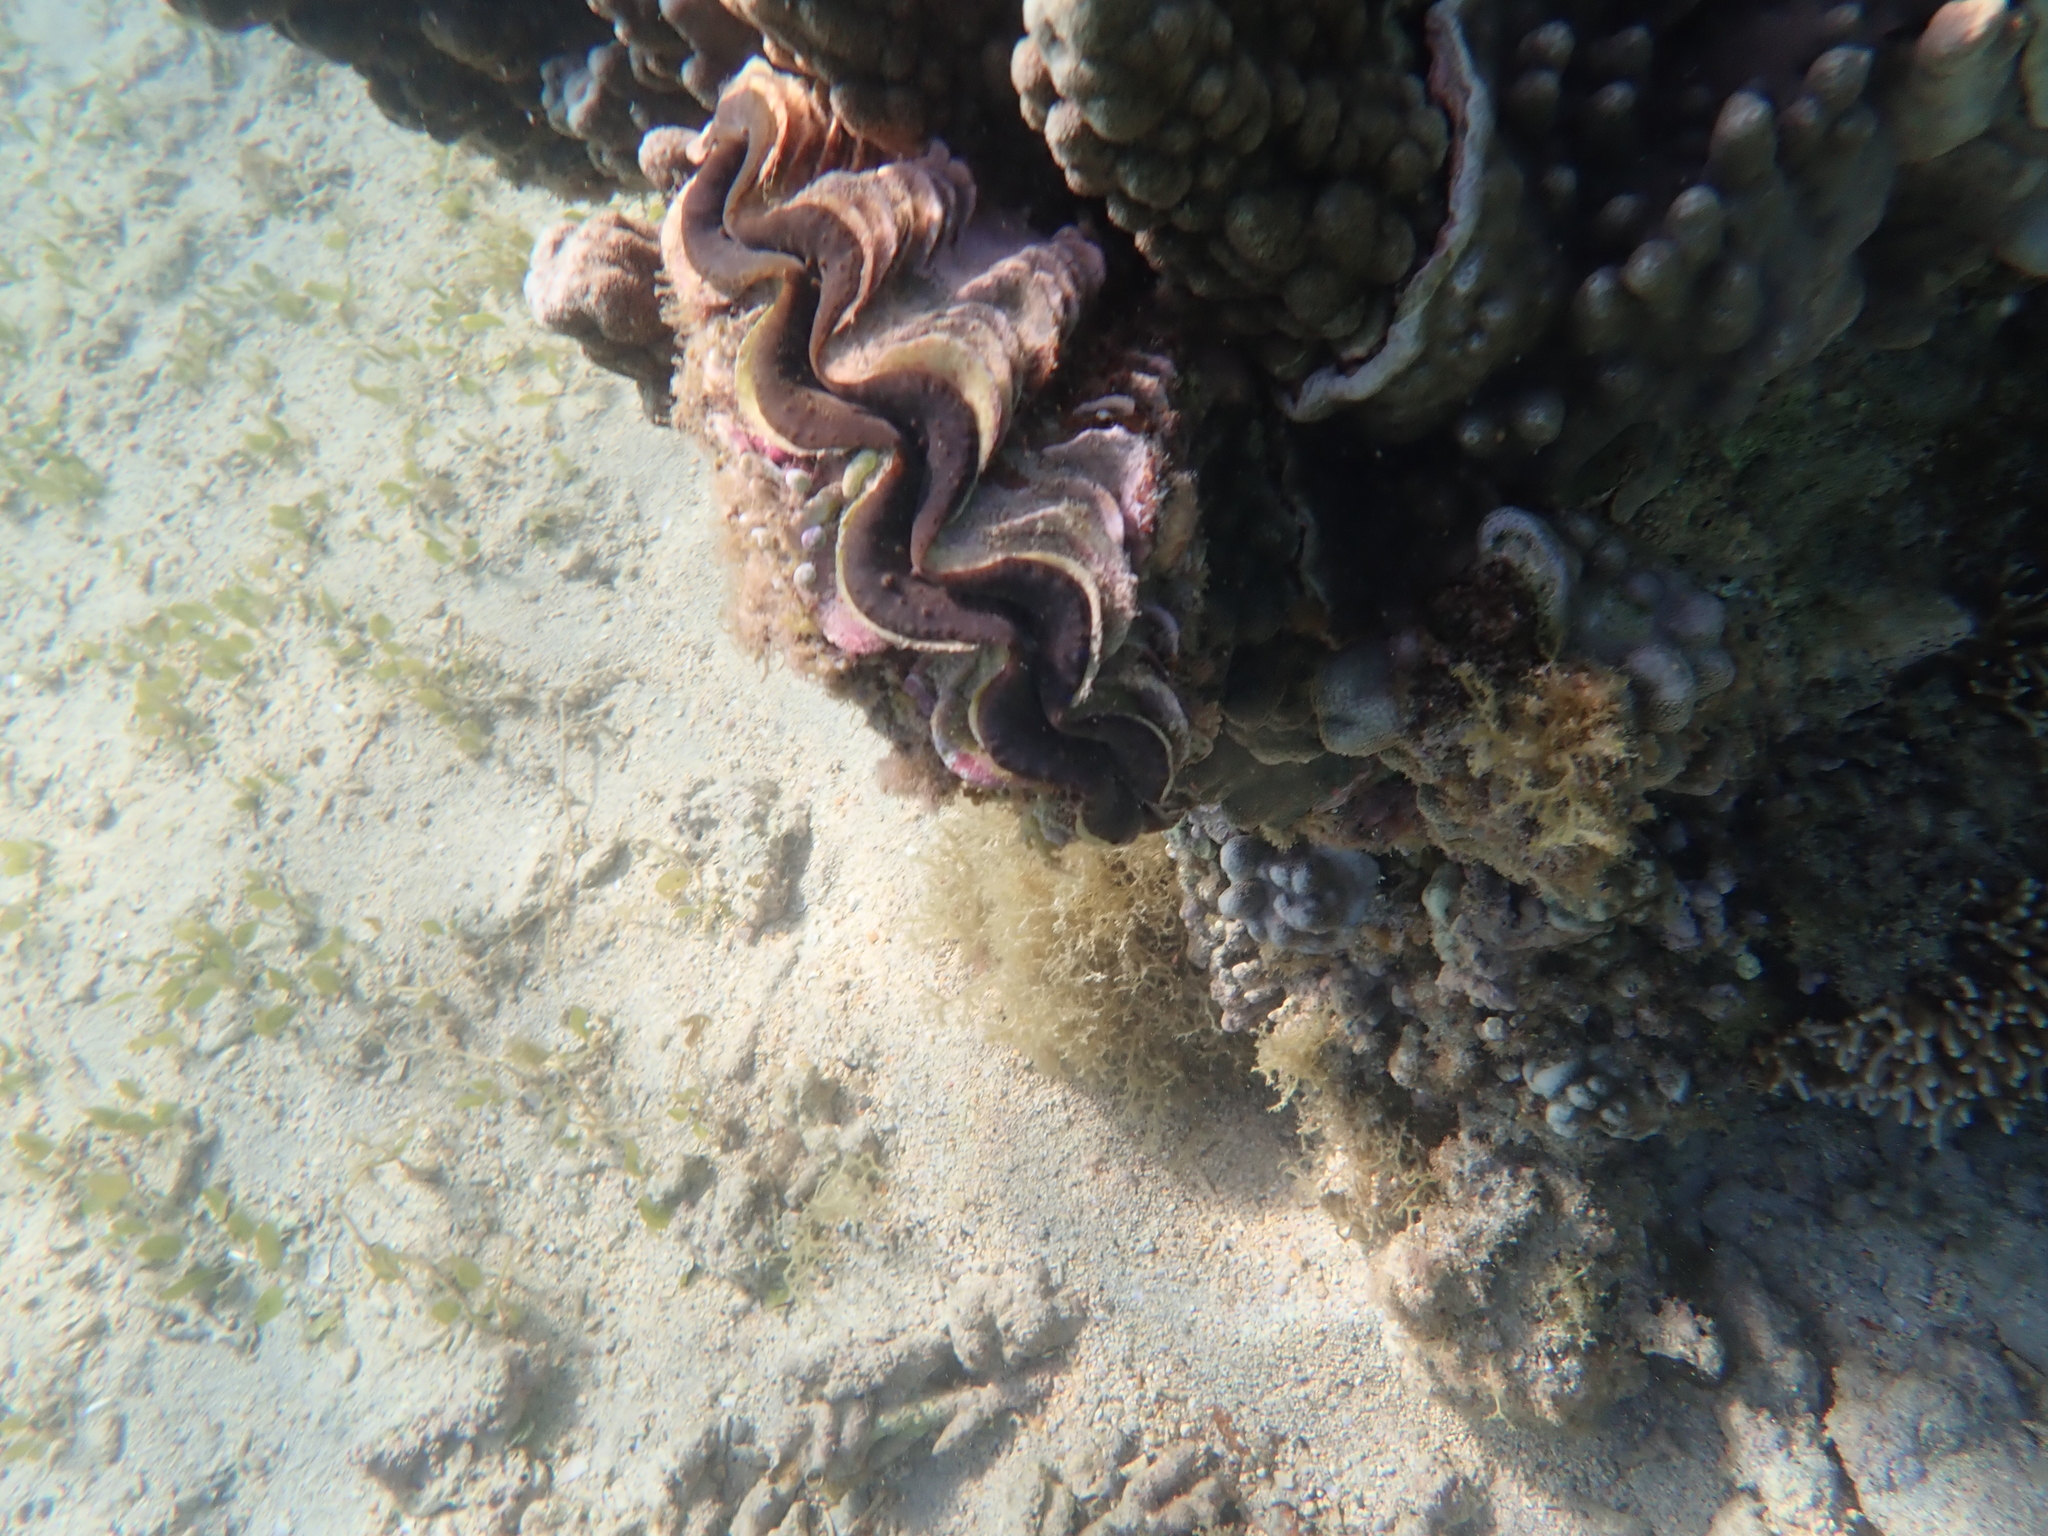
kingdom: Animalia
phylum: Mollusca
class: Bivalvia
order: Cardiida
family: Cardiidae
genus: Tridacna
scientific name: Tridacna maxima
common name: Small giant clam
